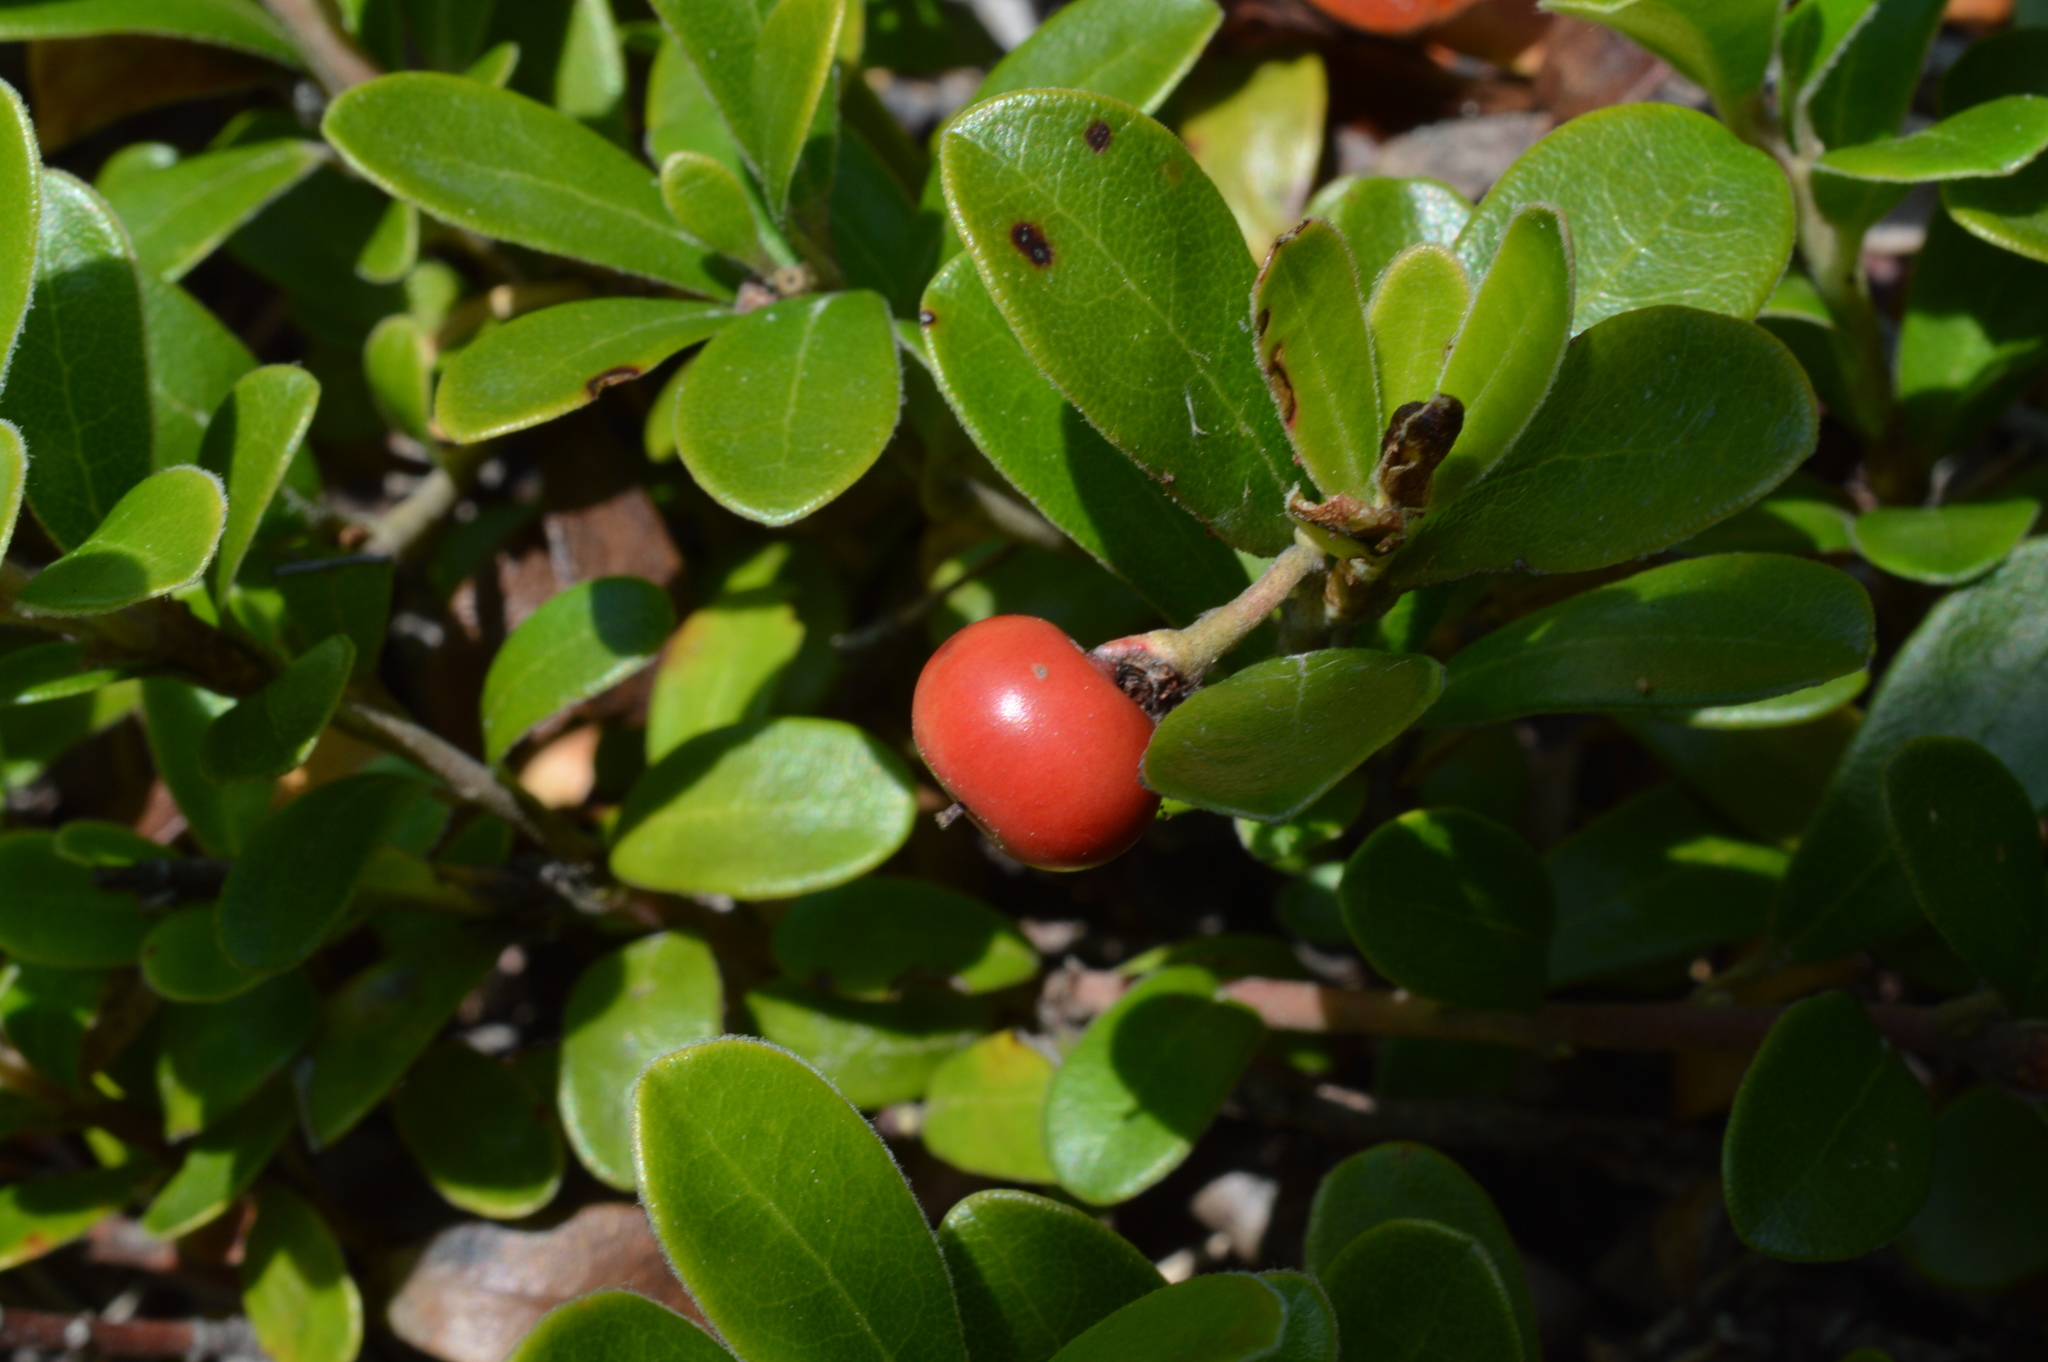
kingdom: Plantae
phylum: Tracheophyta
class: Magnoliopsida
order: Ericales
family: Ericaceae
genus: Arctostaphylos
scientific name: Arctostaphylos uva-ursi
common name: Bearberry
